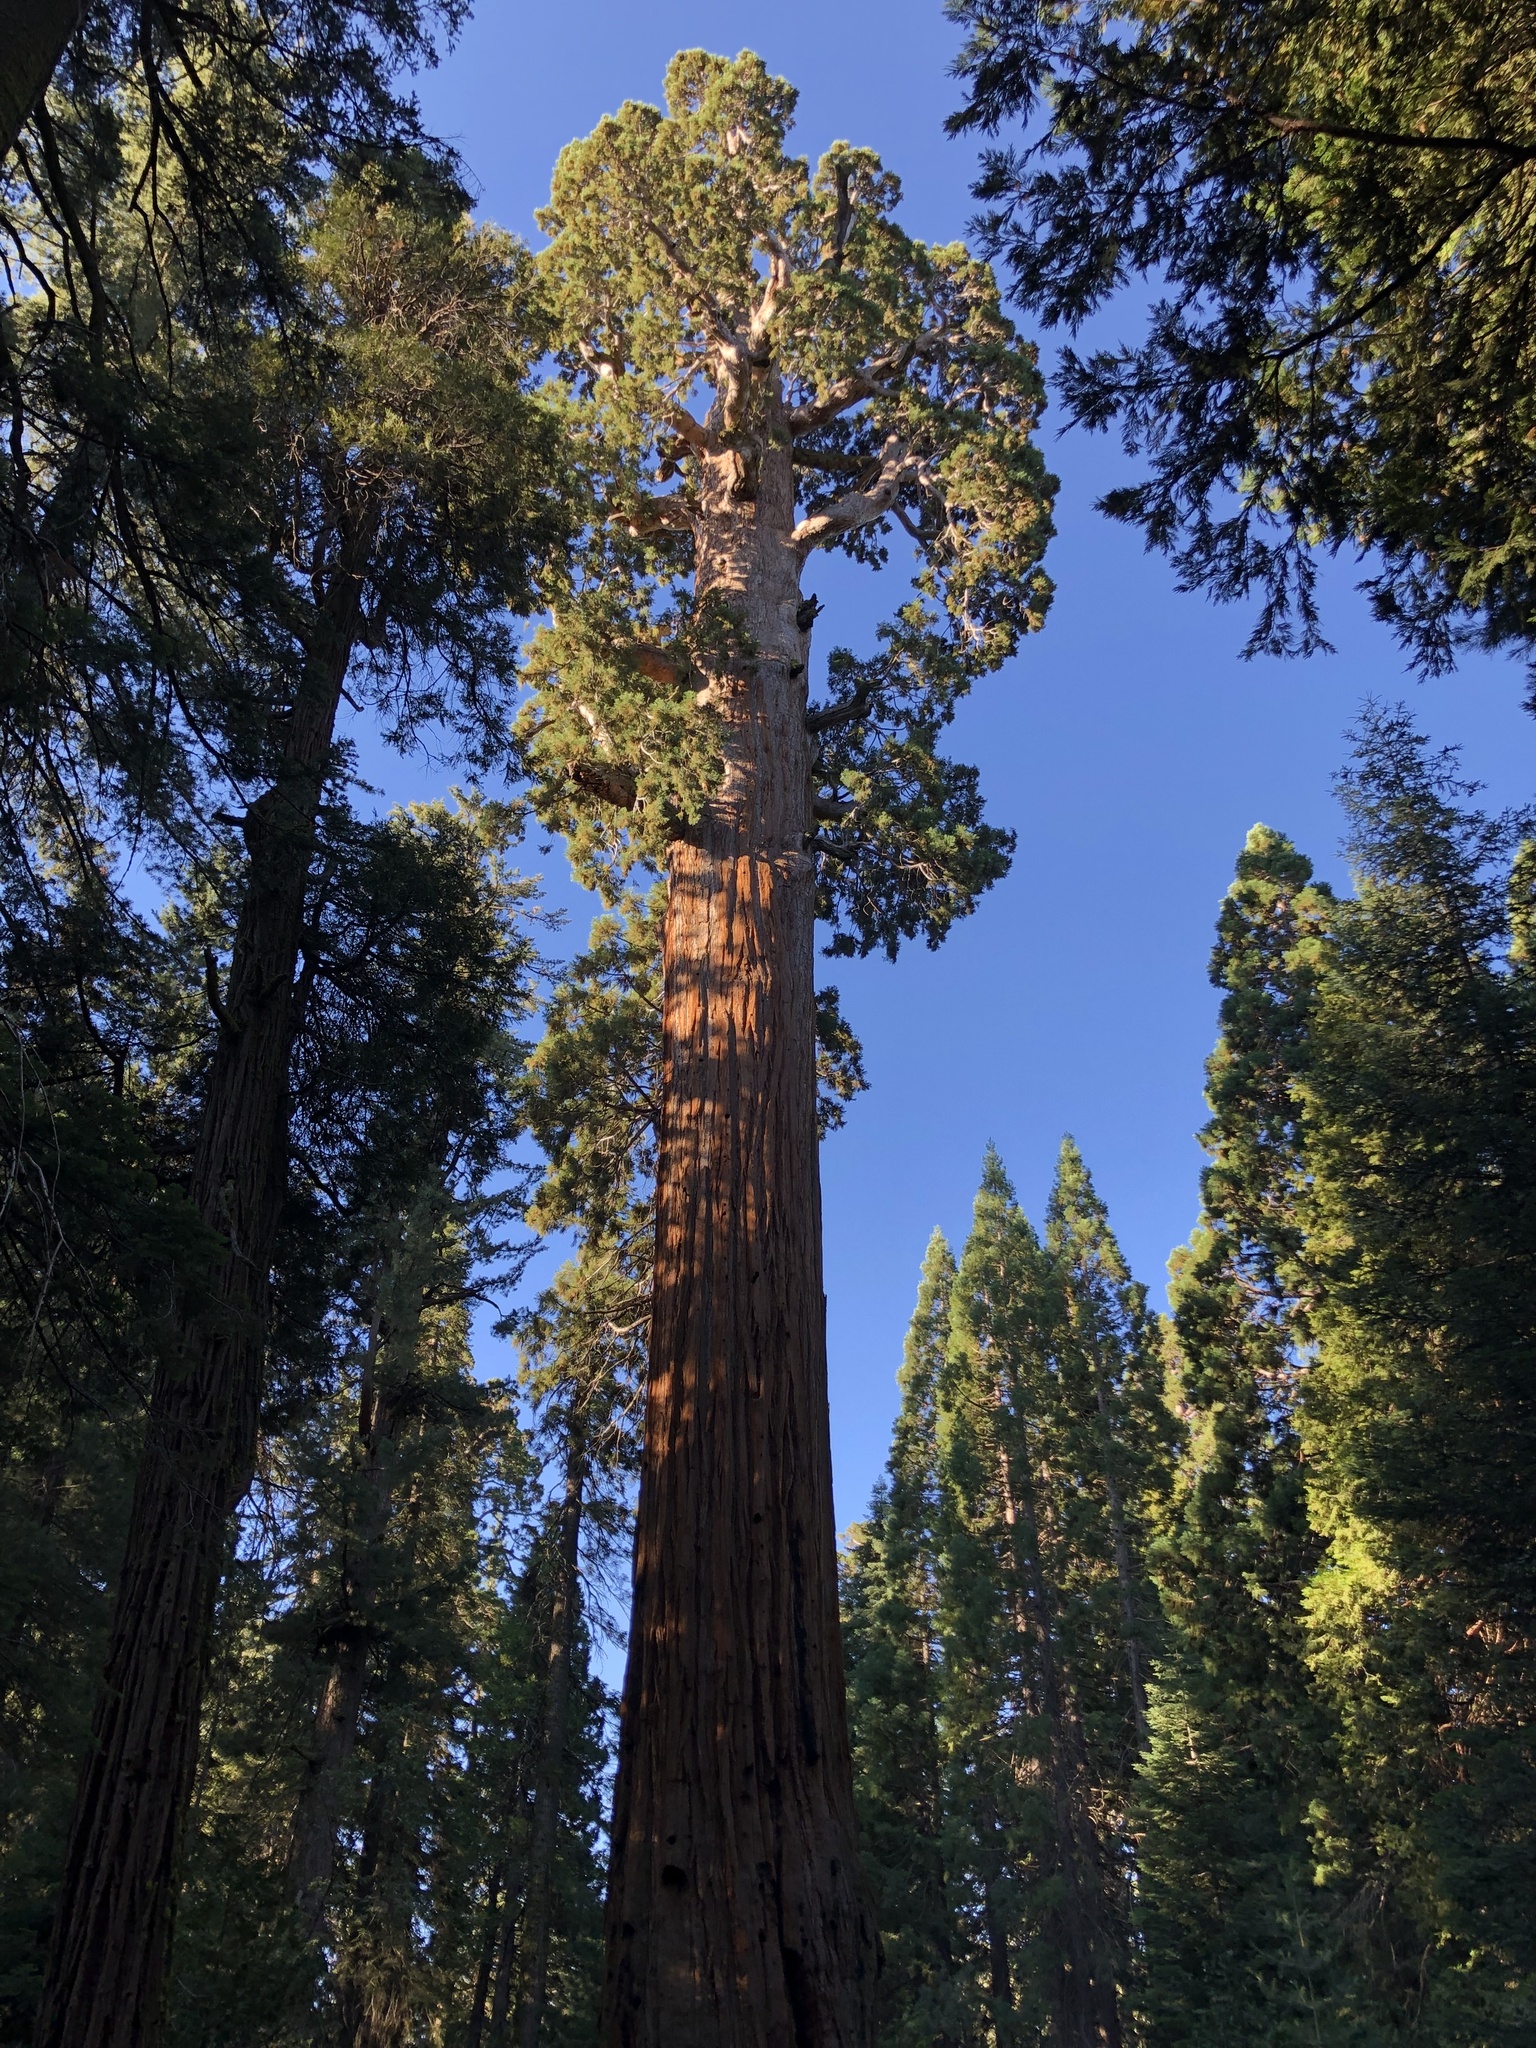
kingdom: Plantae
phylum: Tracheophyta
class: Pinopsida
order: Pinales
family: Cupressaceae
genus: Sequoiadendron
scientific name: Sequoiadendron giganteum
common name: Wellingtonia
